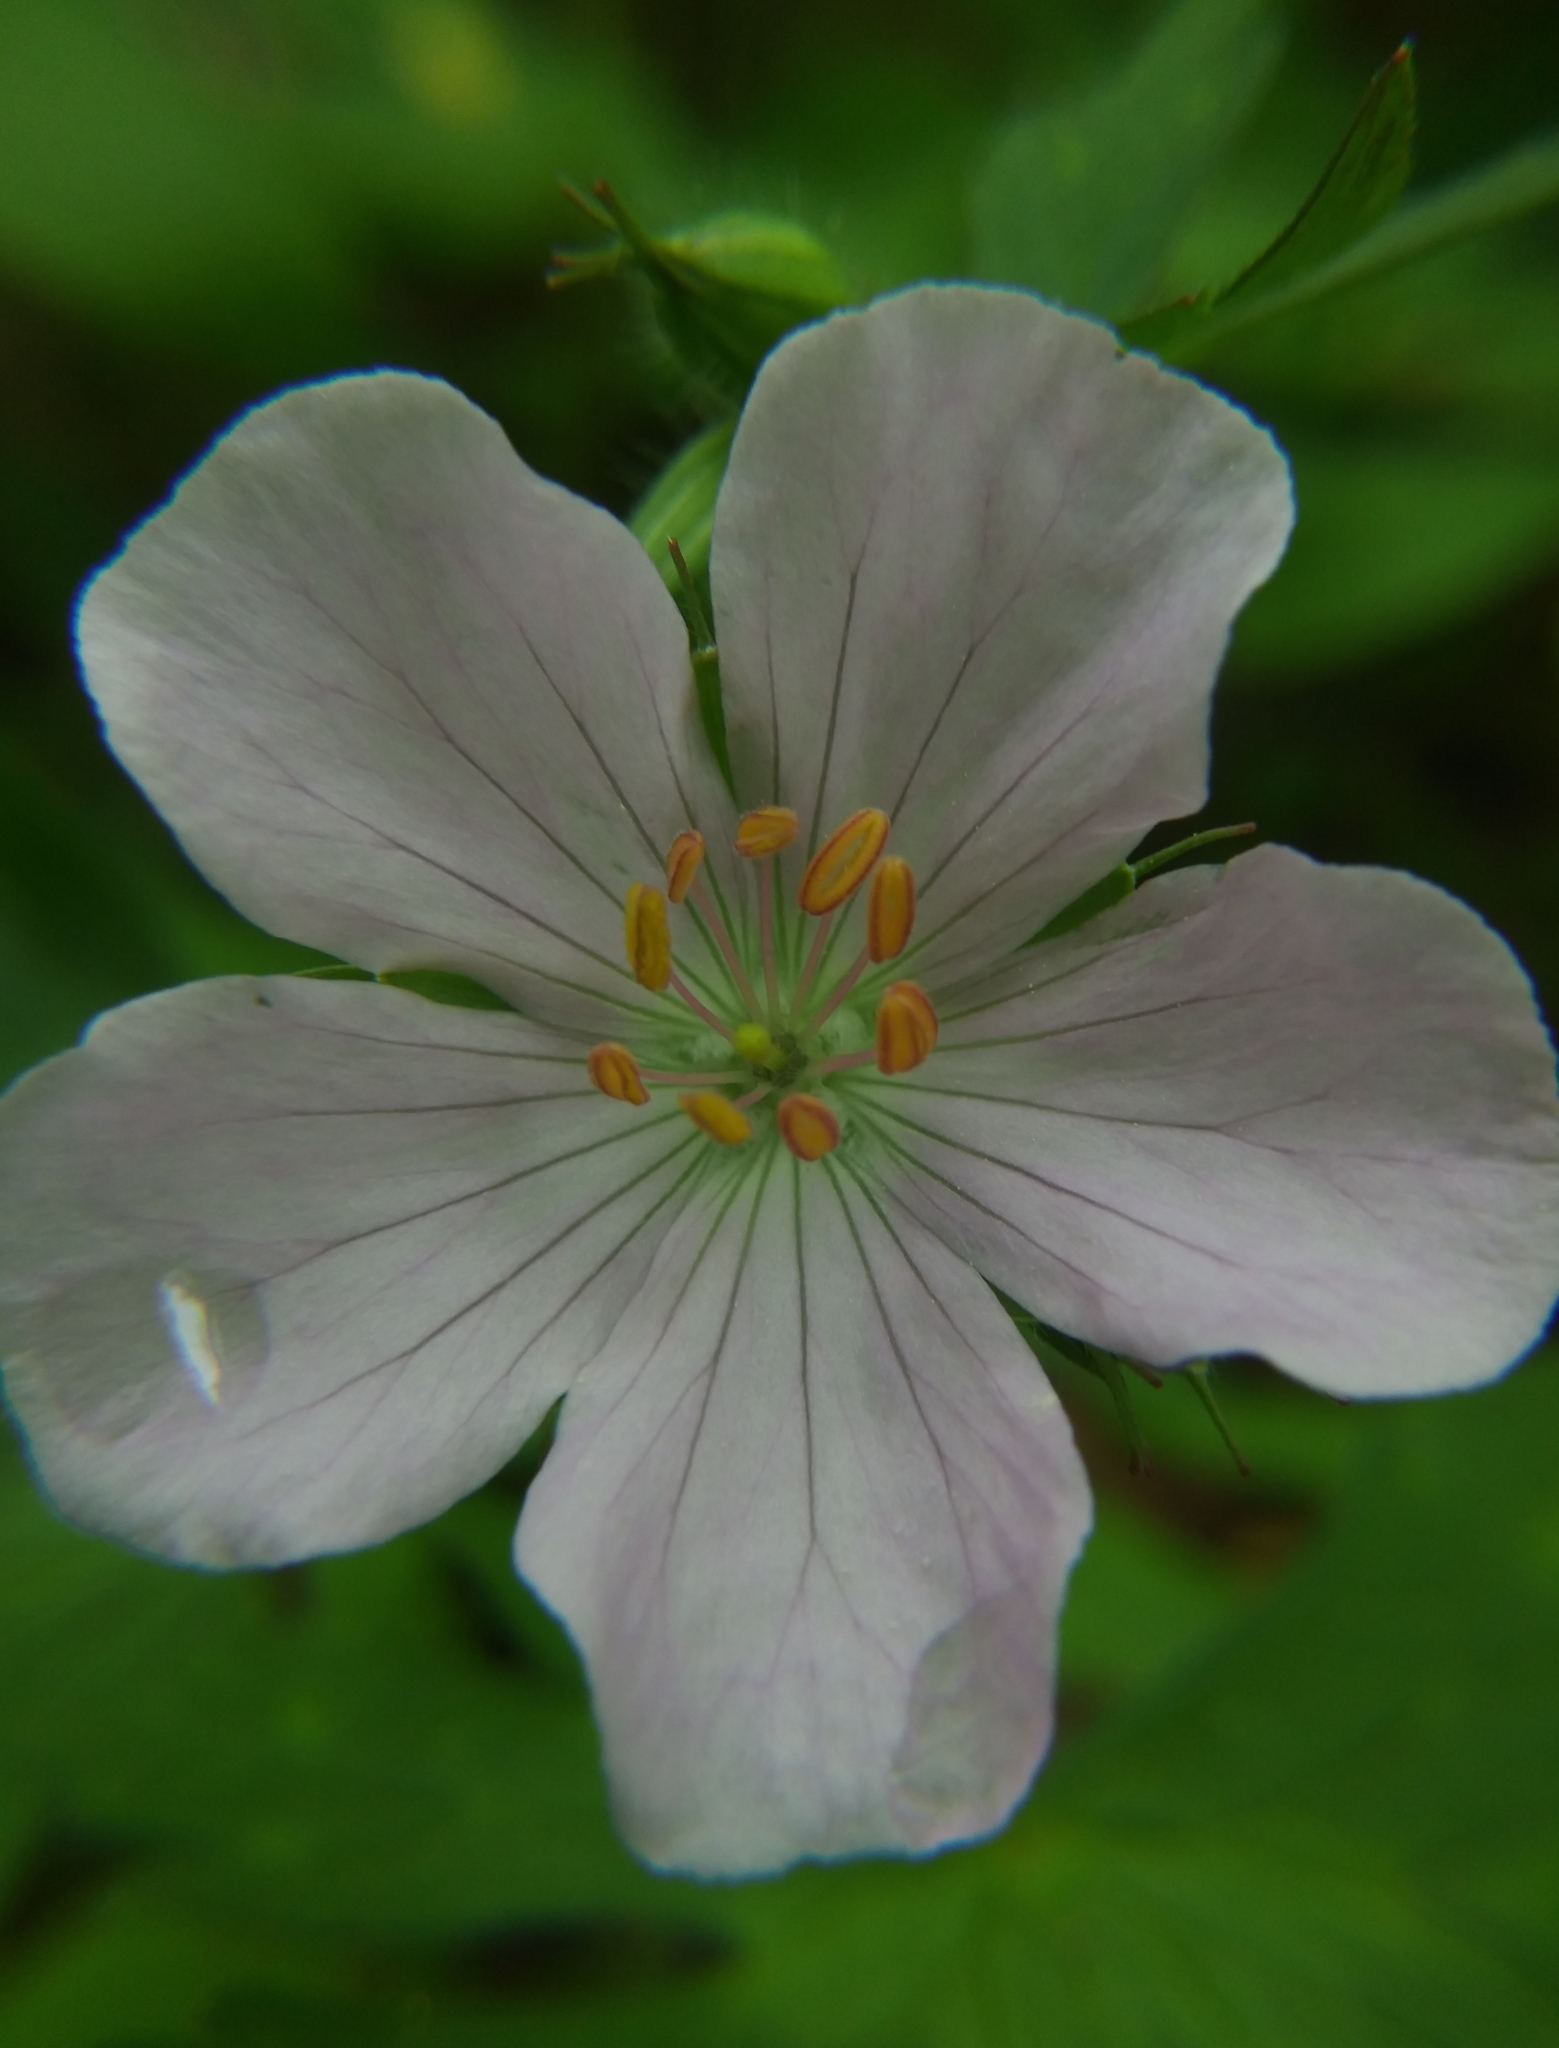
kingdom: Plantae
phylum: Tracheophyta
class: Magnoliopsida
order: Geraniales
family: Geraniaceae
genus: Geranium
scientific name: Geranium maculatum
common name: Spotted geranium
